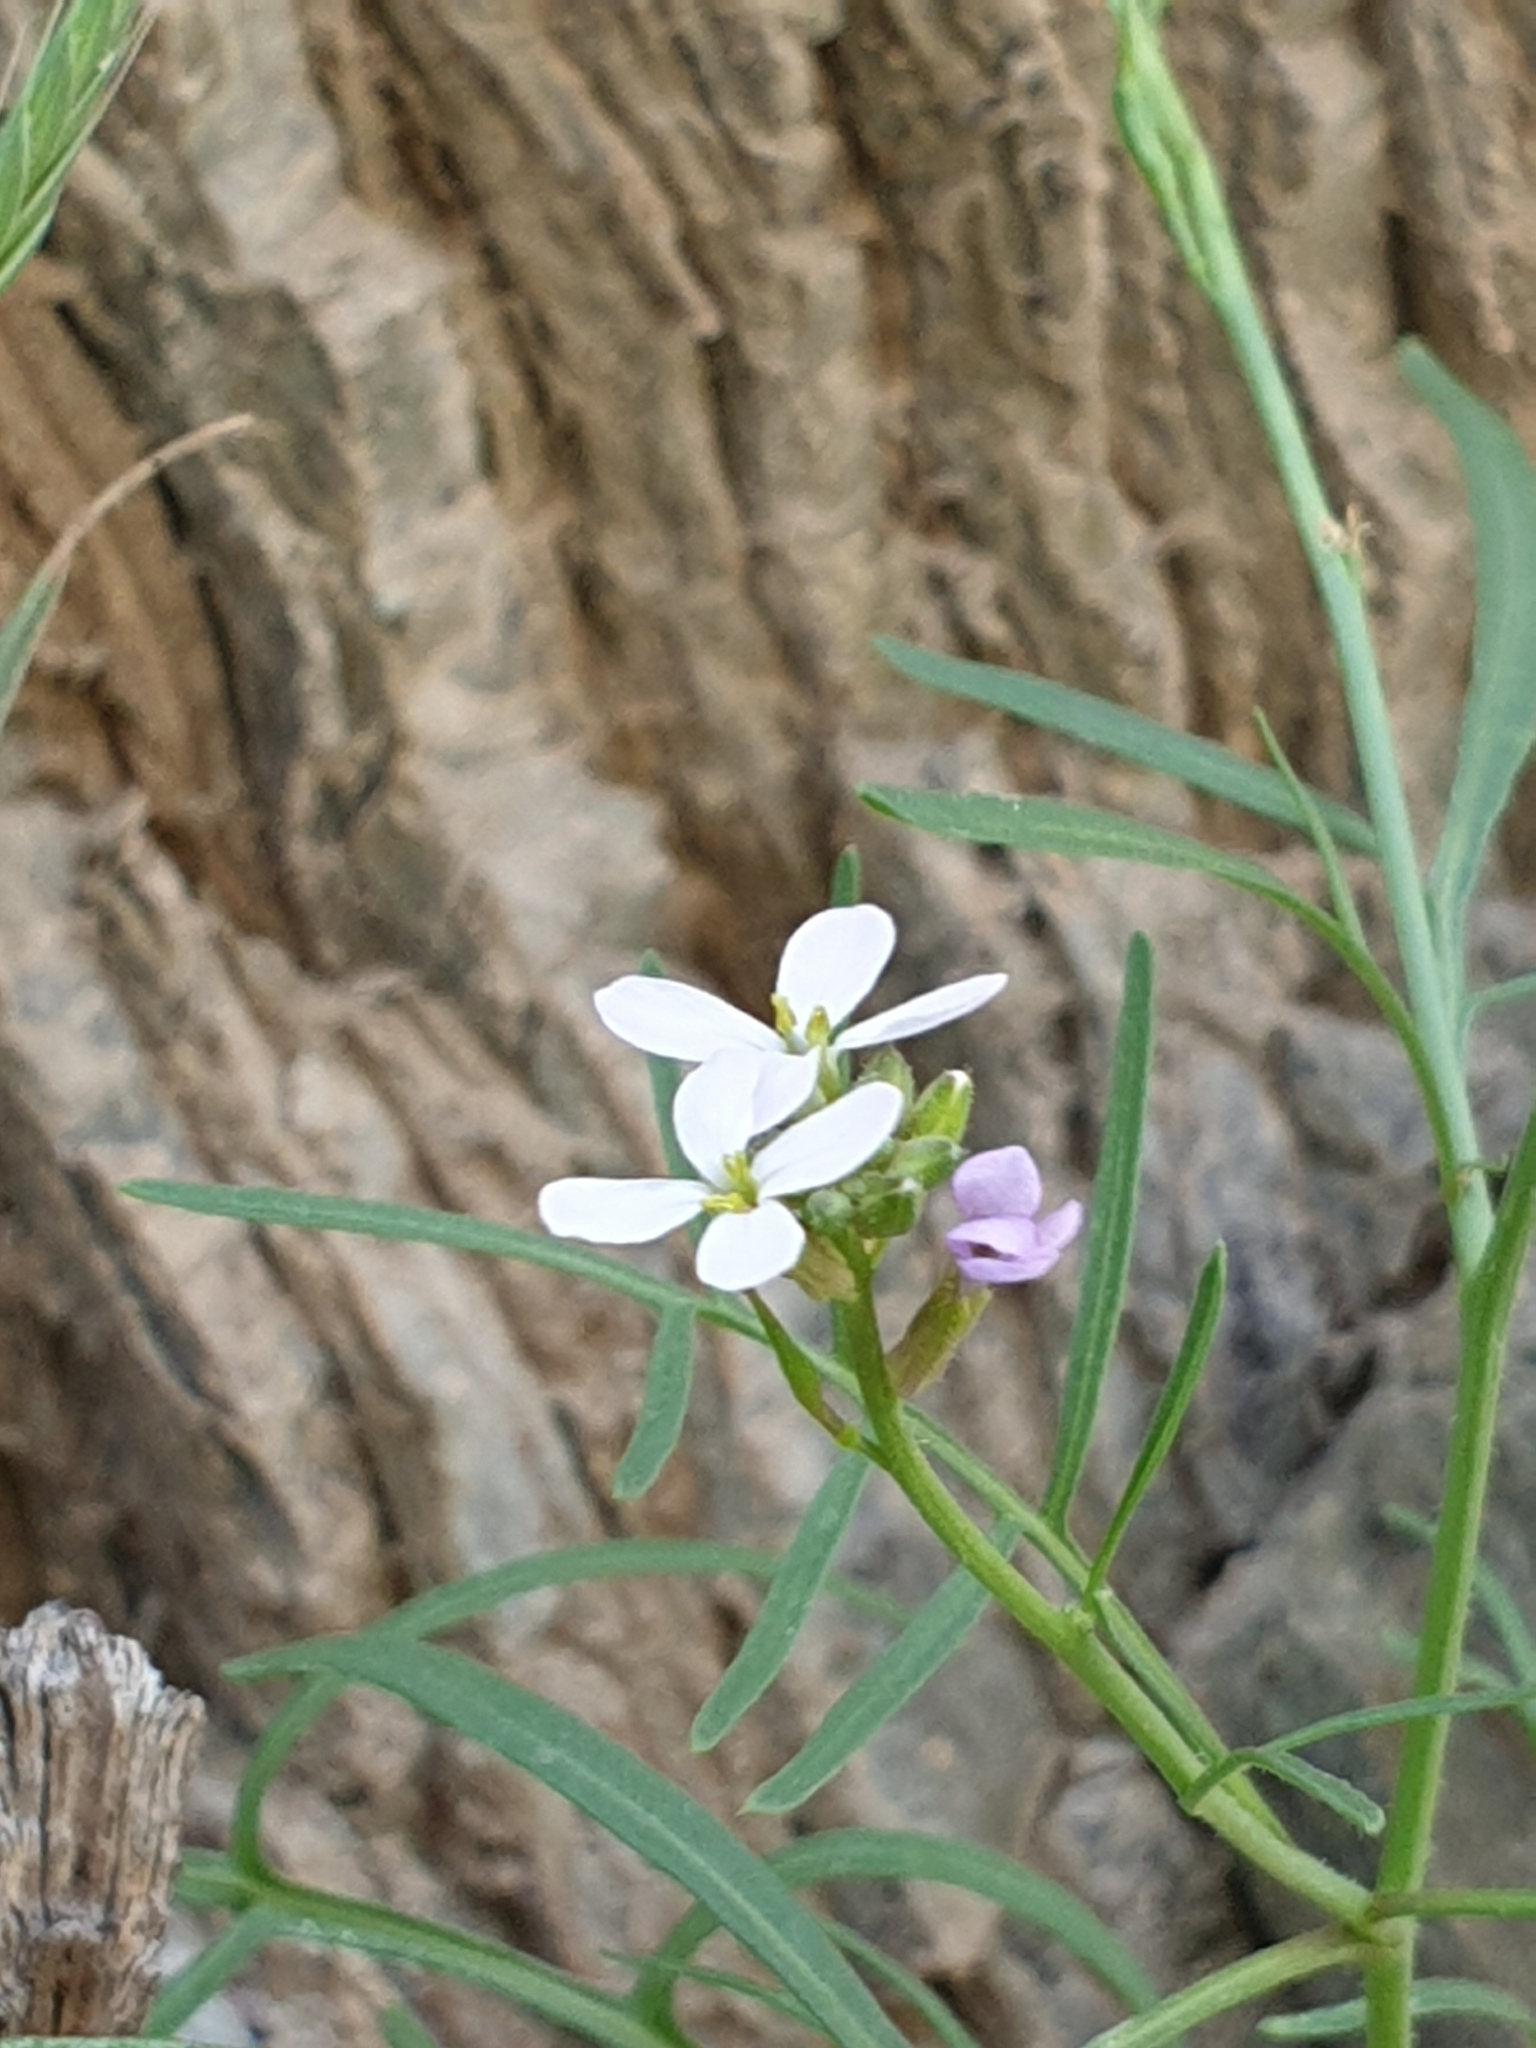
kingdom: Plantae
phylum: Tracheophyta
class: Magnoliopsida
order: Brassicales
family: Brassicaceae
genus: Erucaria
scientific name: Erucaria hispanica
